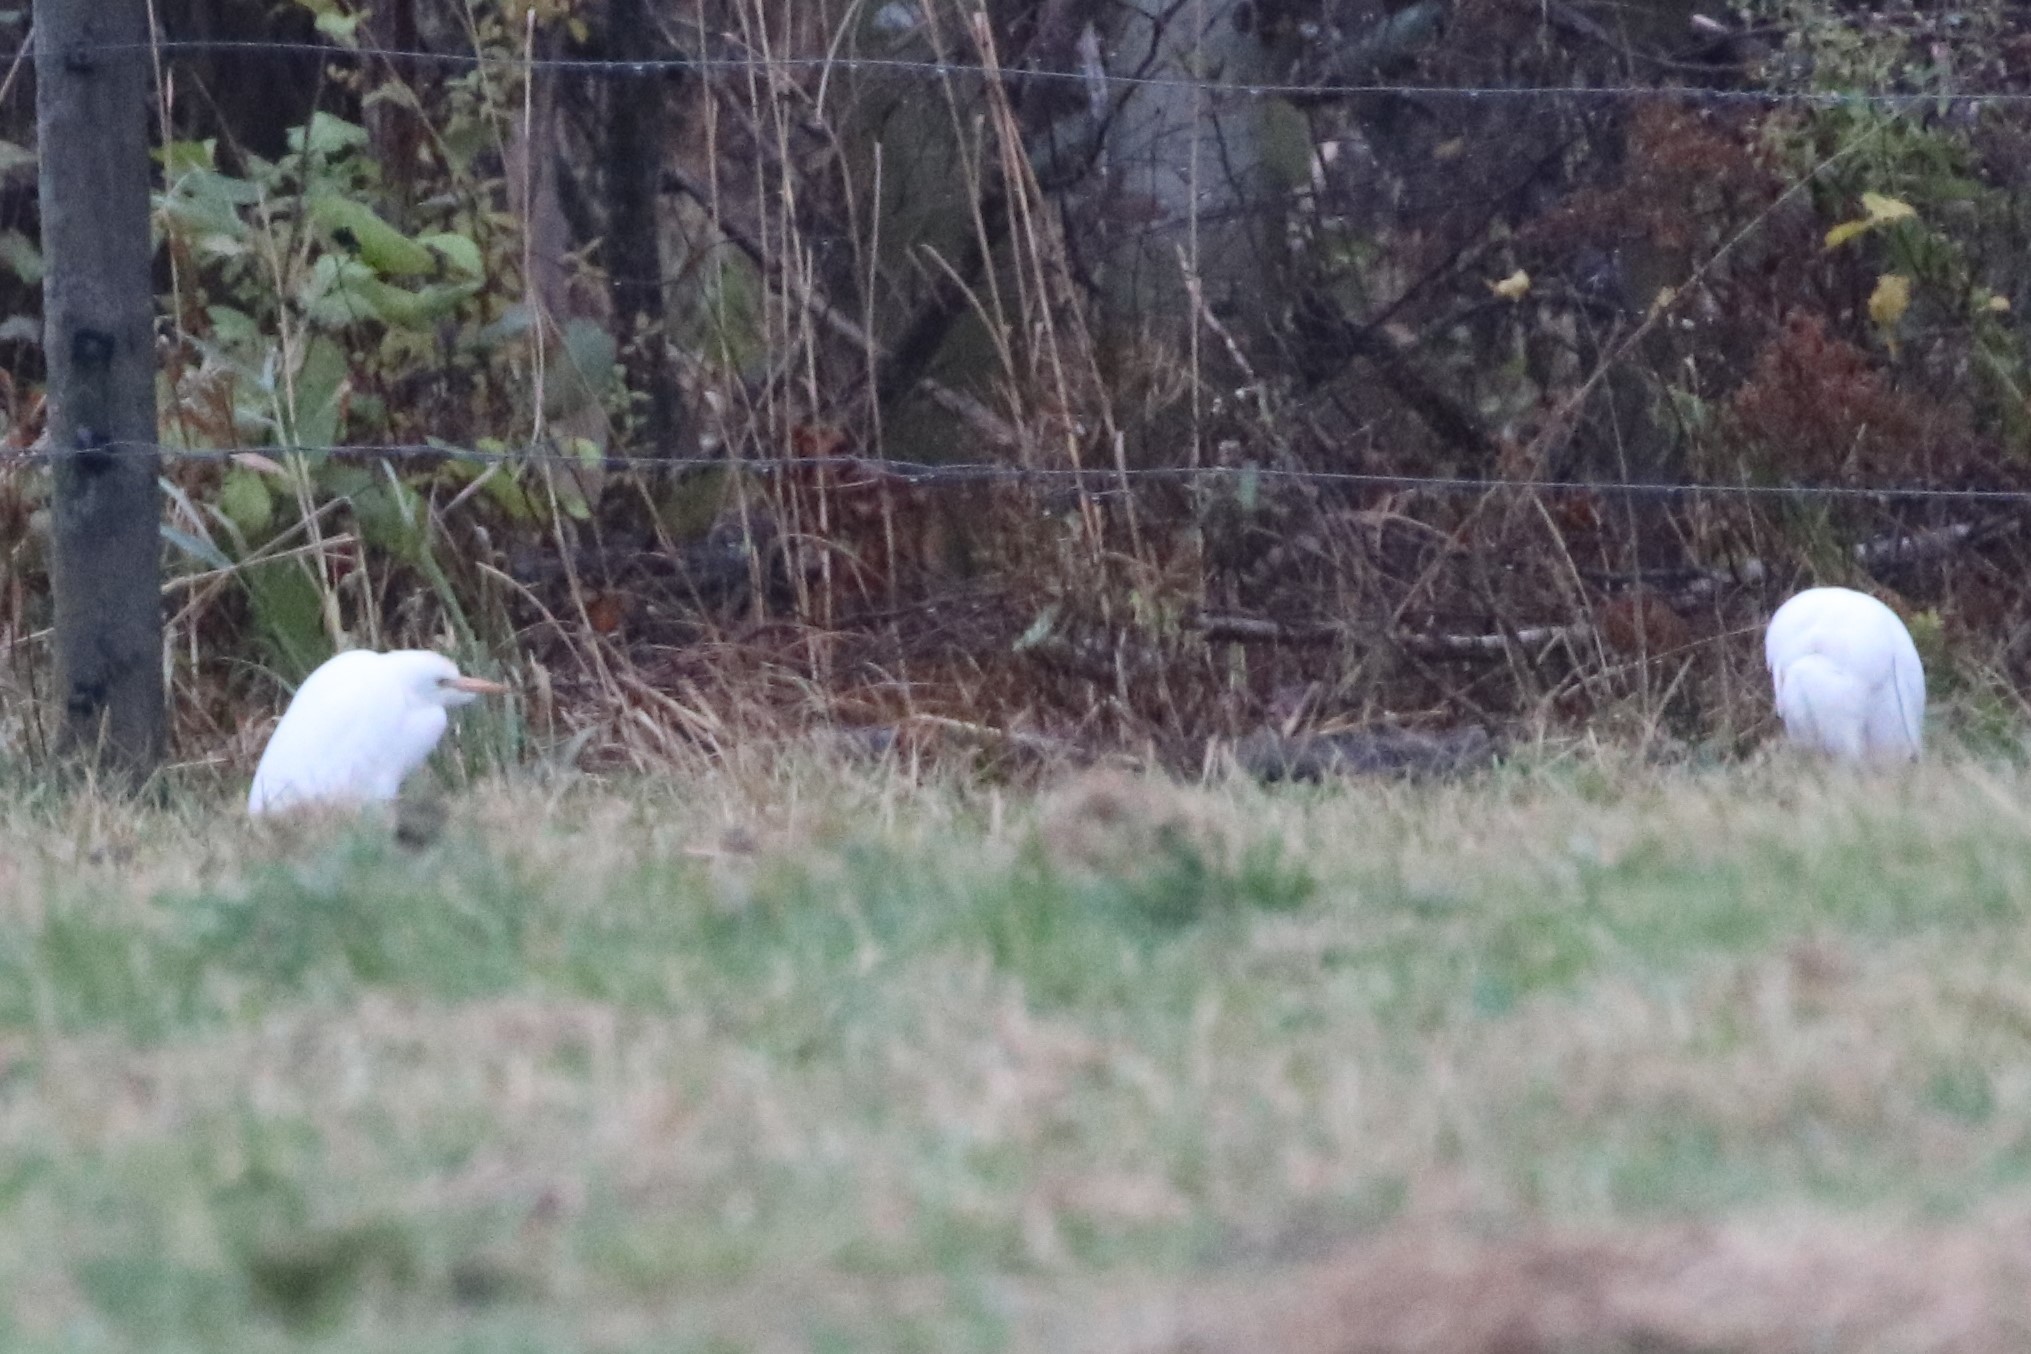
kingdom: Animalia
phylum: Chordata
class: Aves
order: Pelecaniformes
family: Ardeidae
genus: Bubulcus
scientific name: Bubulcus ibis
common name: Cattle egret
